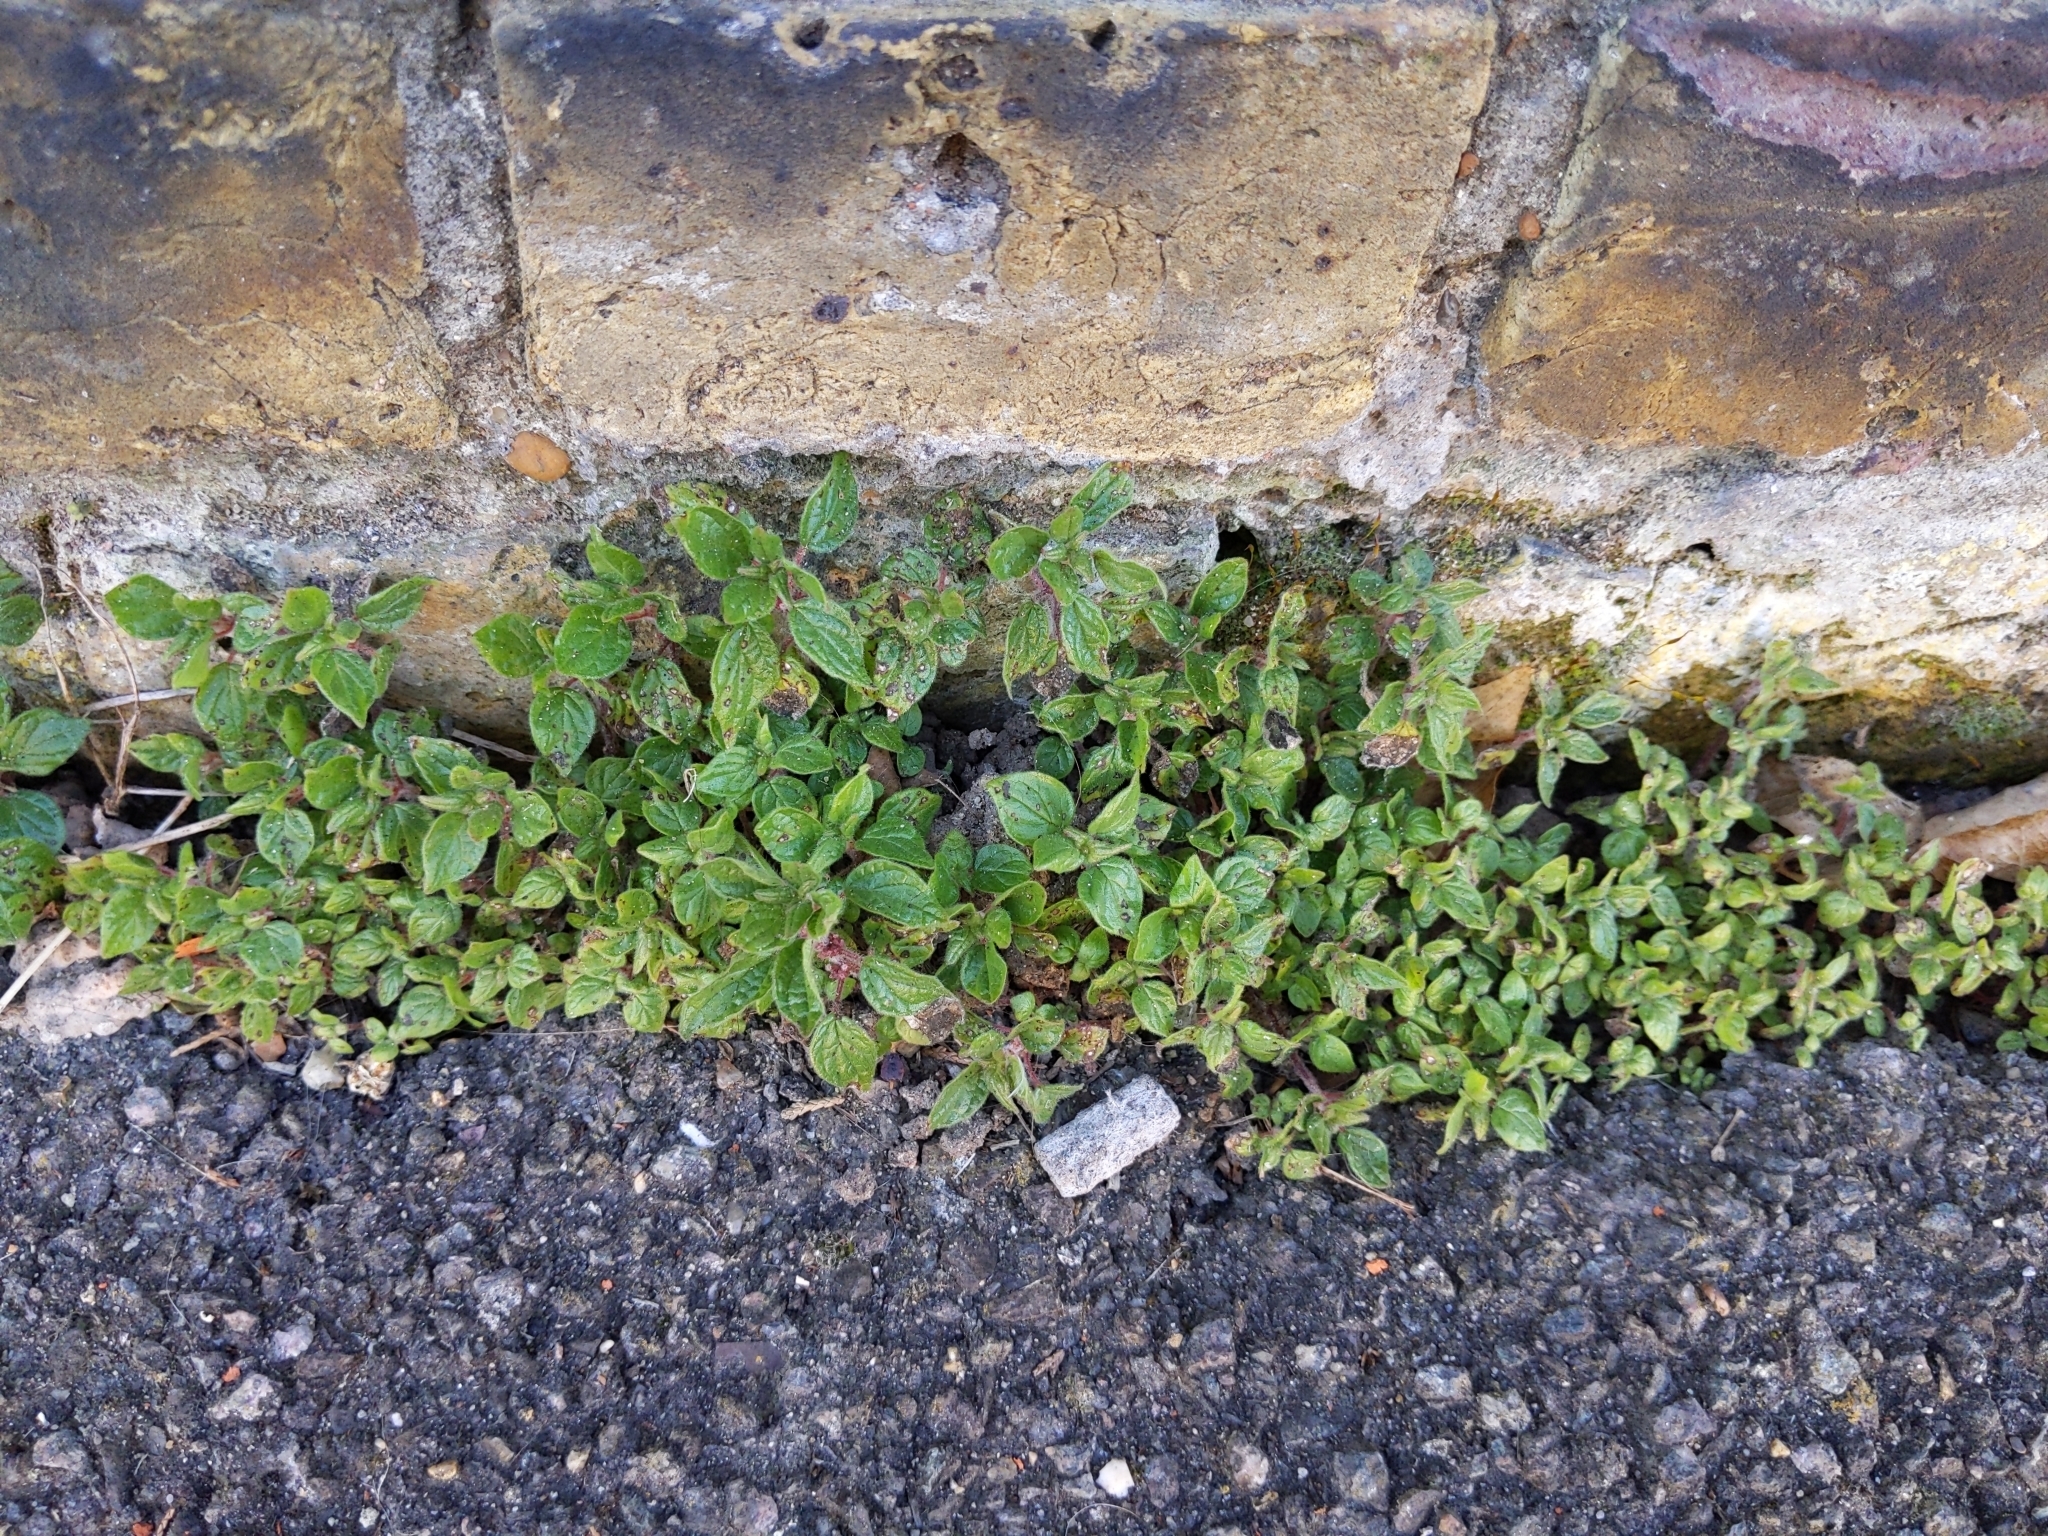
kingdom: Plantae
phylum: Tracheophyta
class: Magnoliopsida
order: Rosales
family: Urticaceae
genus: Parietaria
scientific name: Parietaria judaica
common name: Pellitory-of-the-wall
